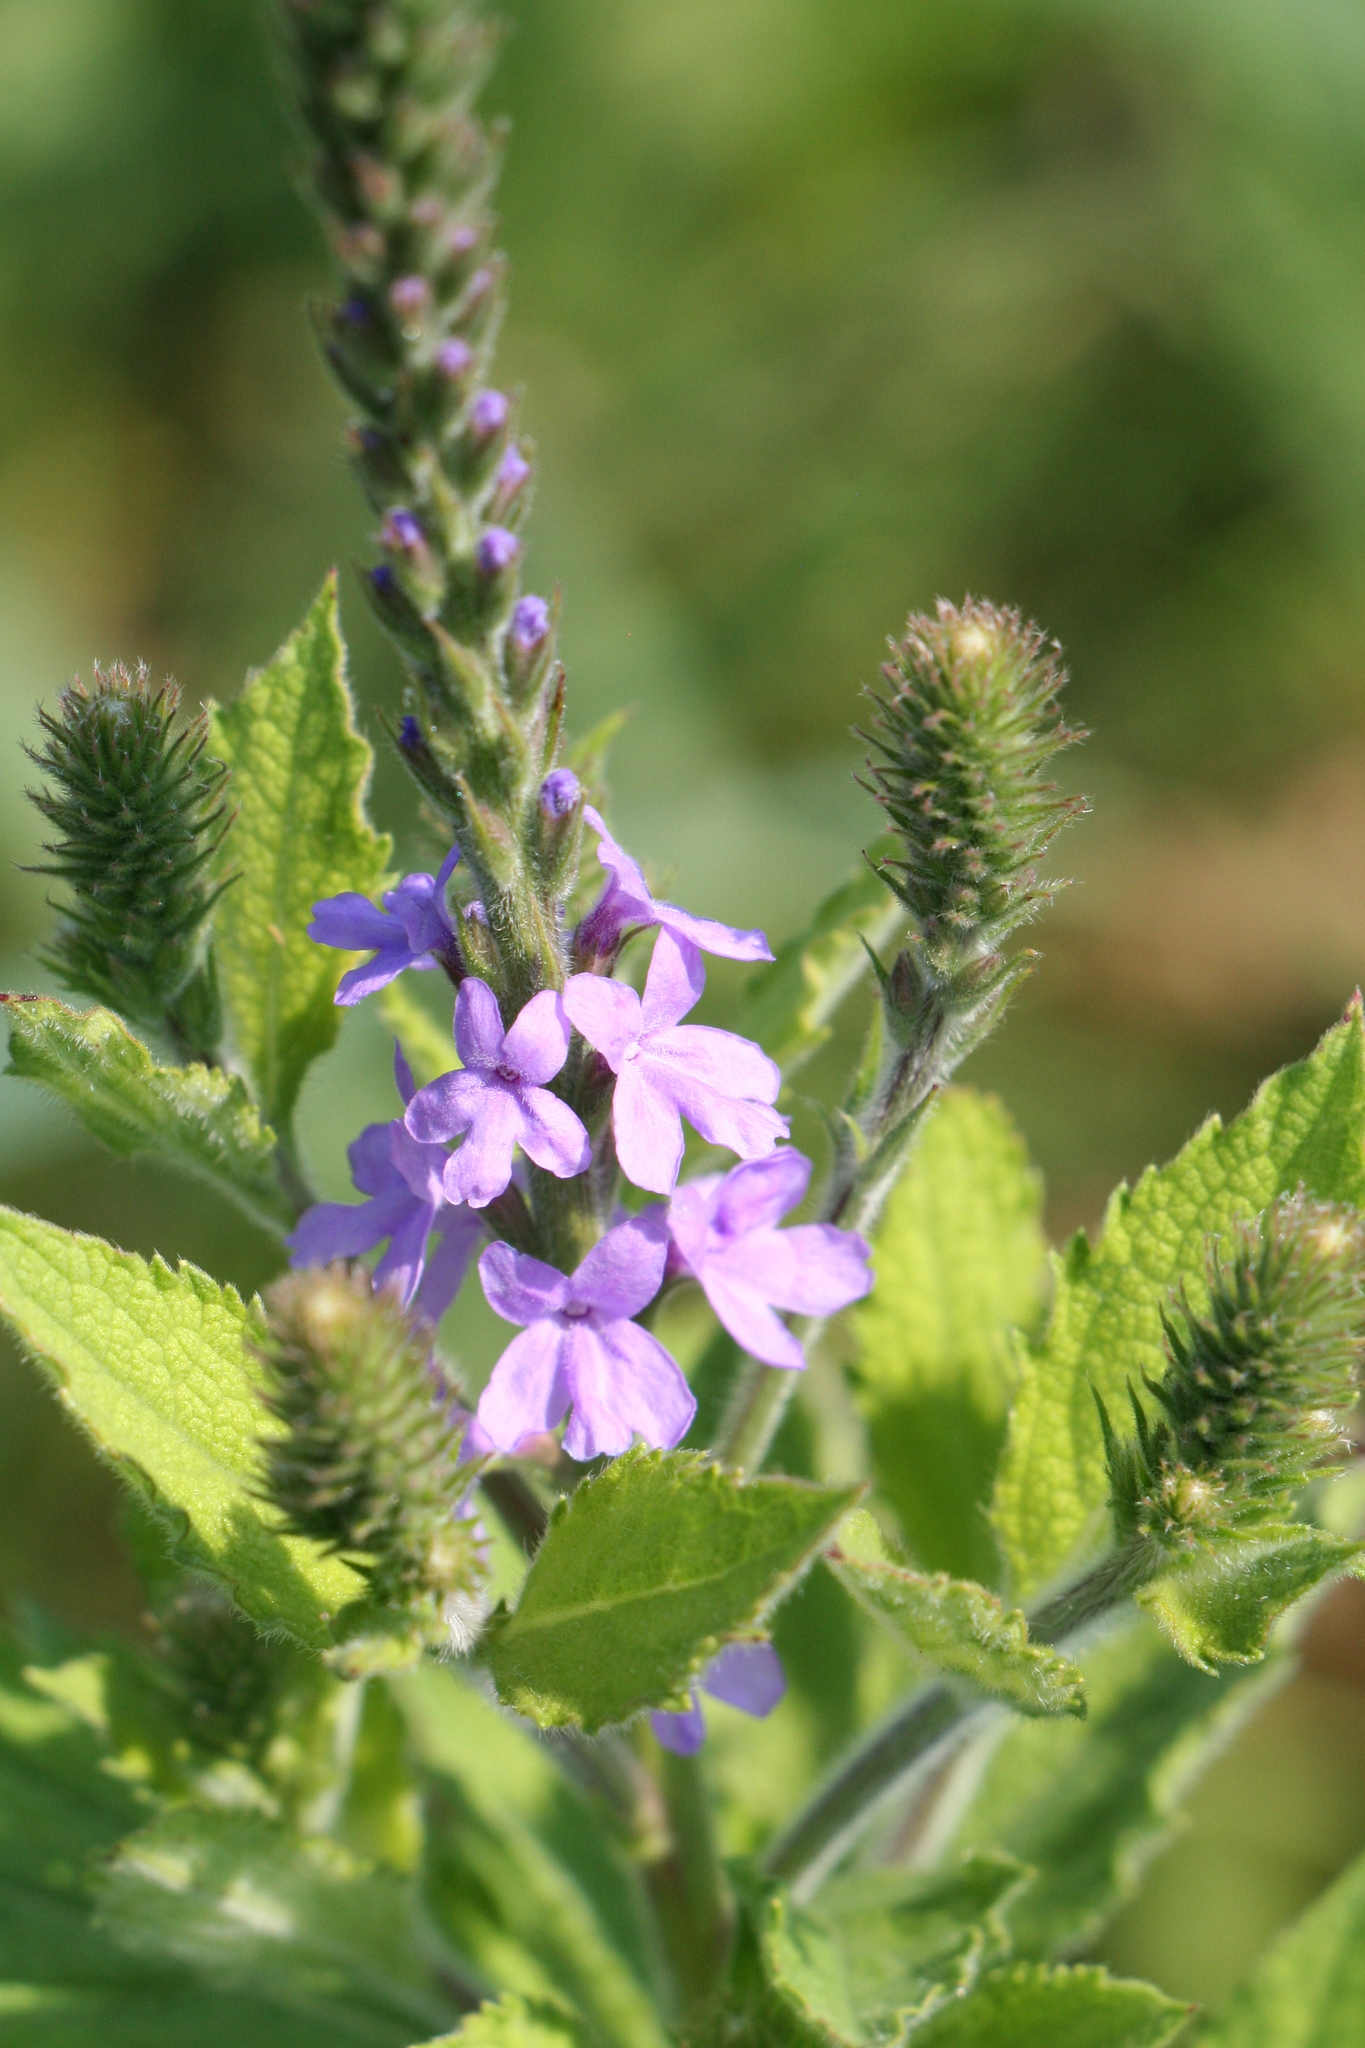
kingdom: Plantae
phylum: Tracheophyta
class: Magnoliopsida
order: Lamiales
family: Verbenaceae
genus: Verbena
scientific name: Verbena stricta
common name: Hoary vervain
